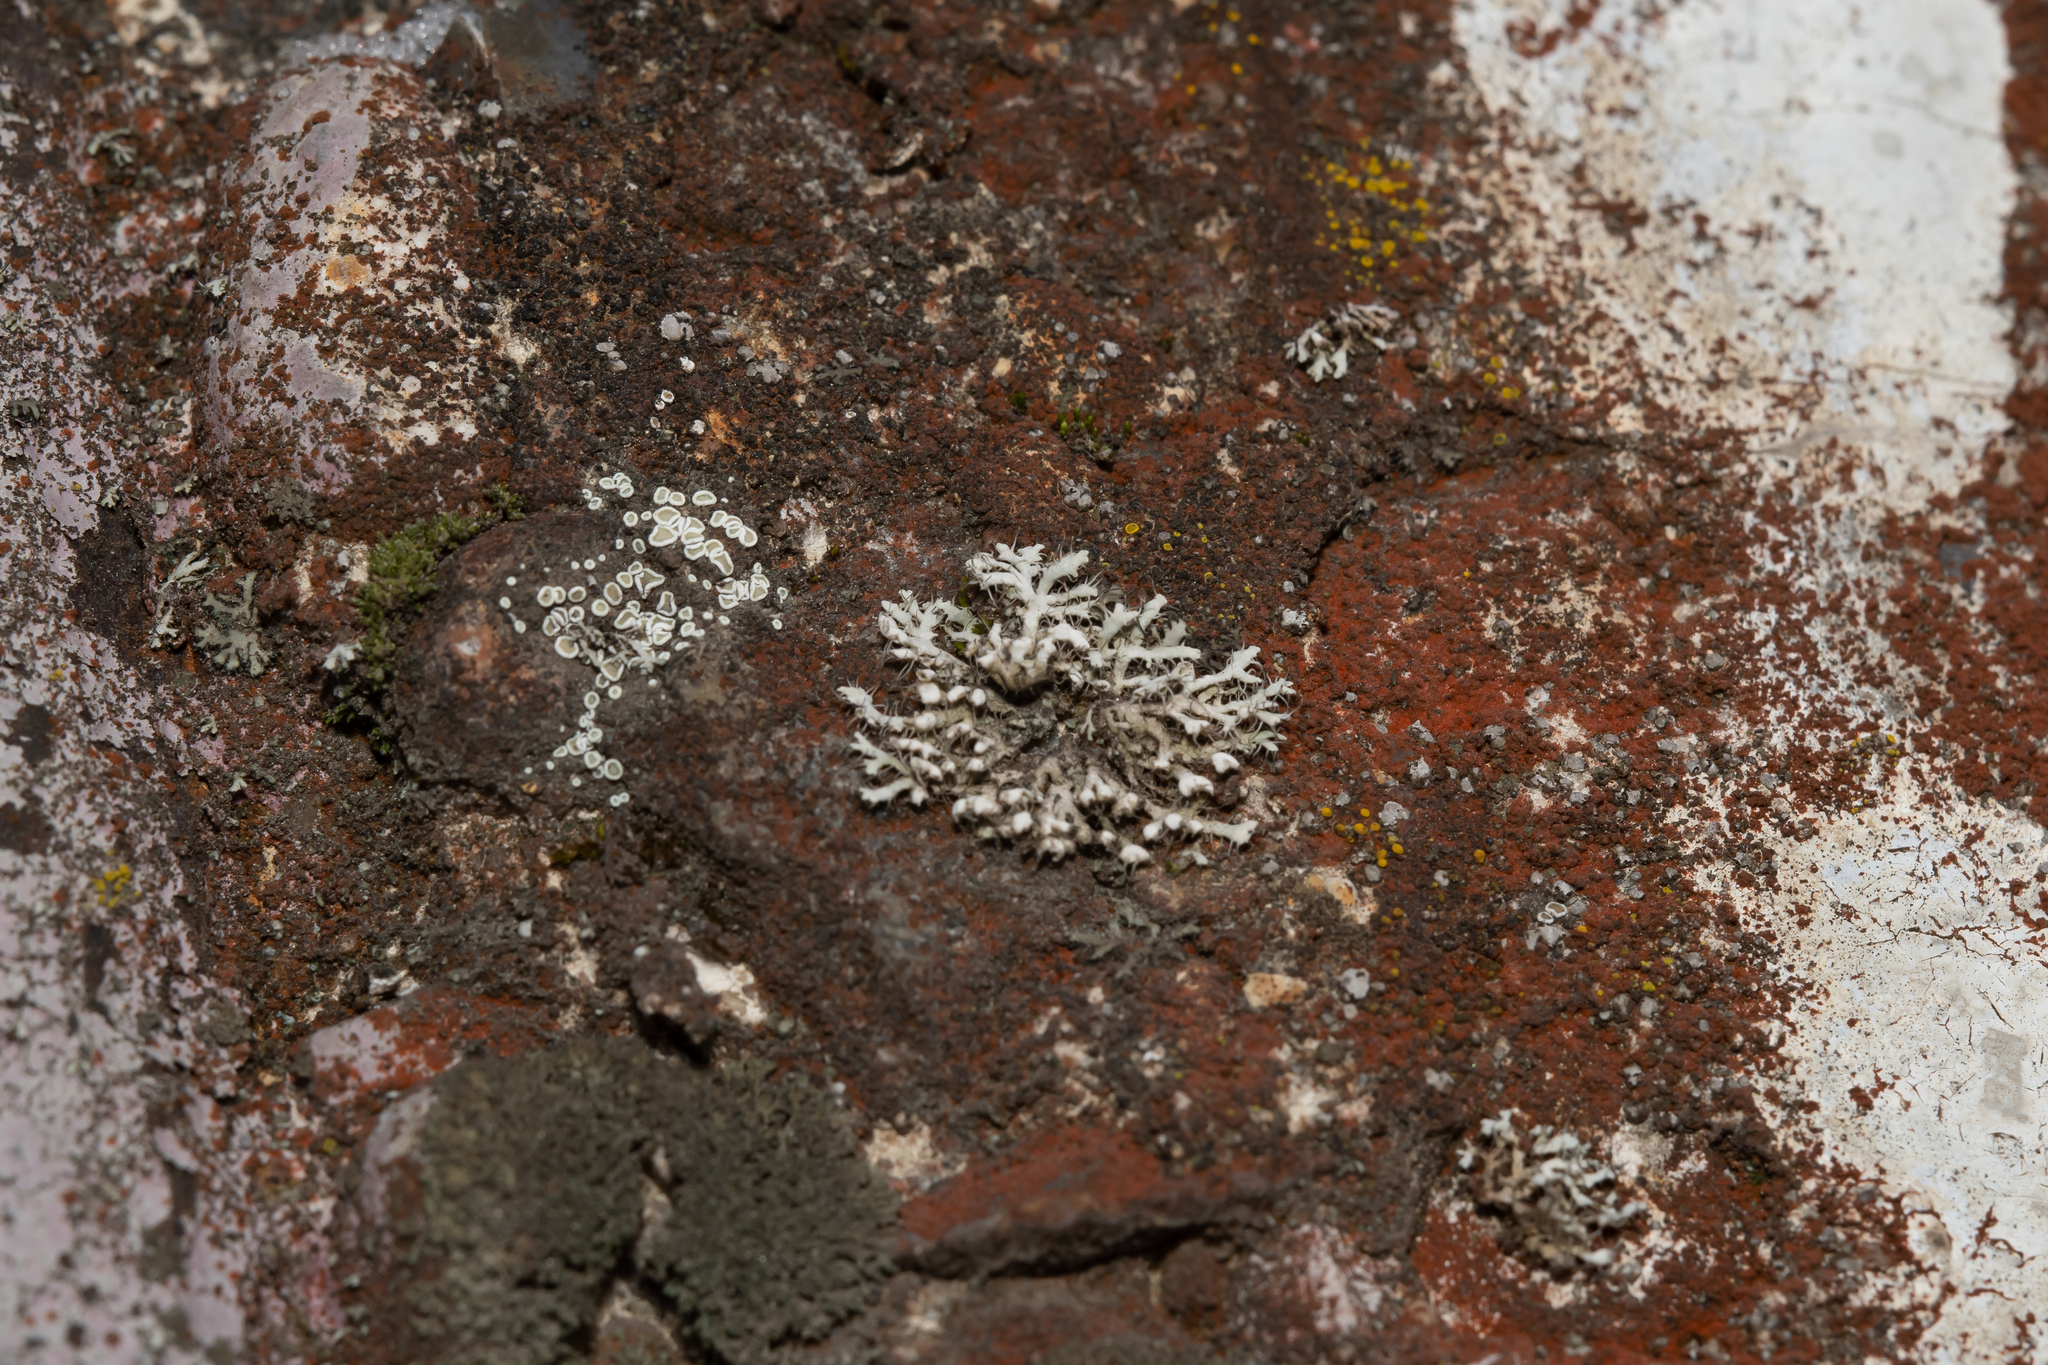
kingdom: Fungi
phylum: Ascomycota
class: Lecanoromycetes
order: Caliciales
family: Physciaceae
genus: Physcia
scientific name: Physcia adscendens
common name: Hooded rosette lichen
